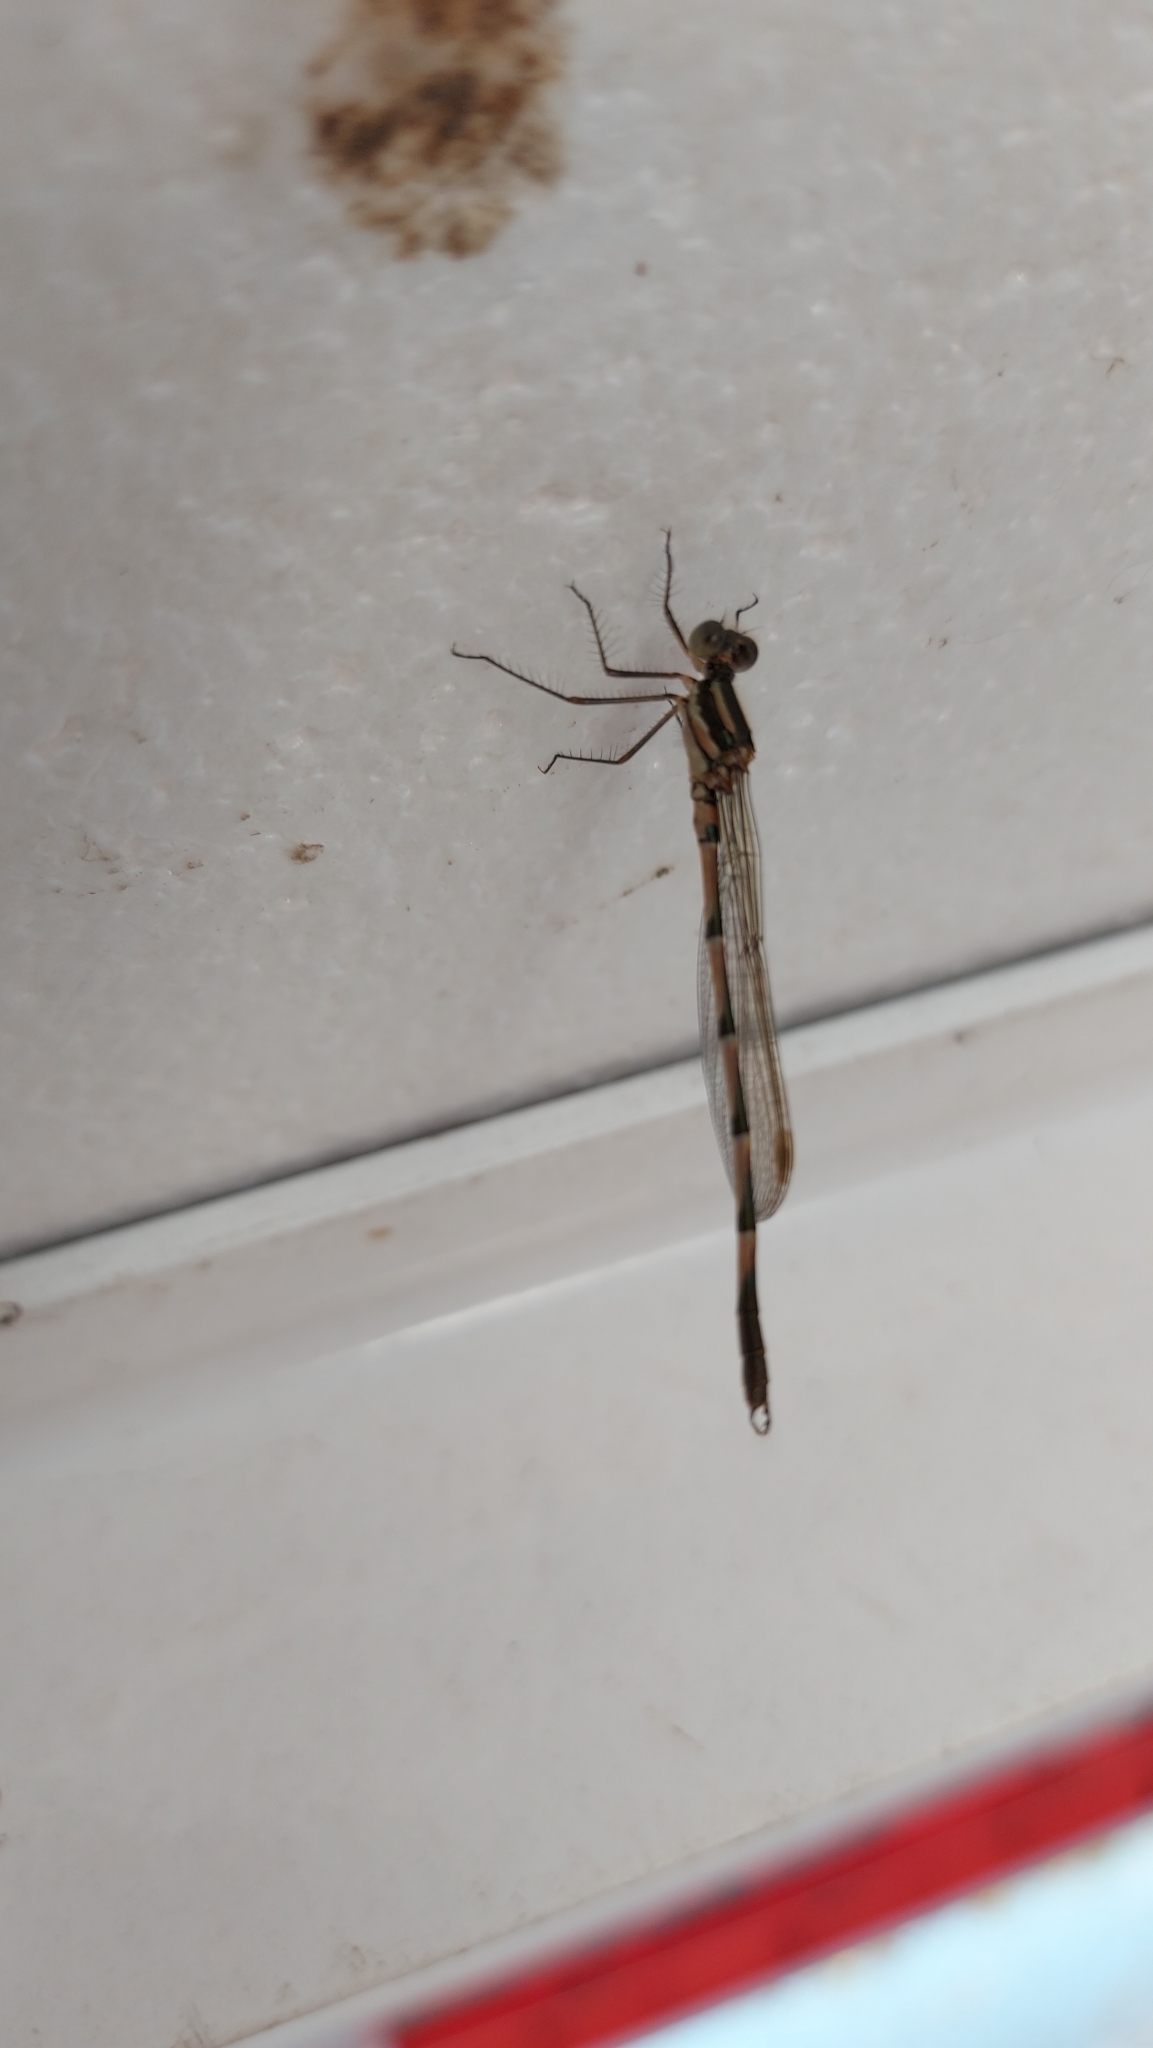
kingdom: Animalia
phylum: Arthropoda
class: Insecta
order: Odonata
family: Lestidae
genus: Austrolestes
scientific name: Austrolestes annulosus
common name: Blue ringtail
